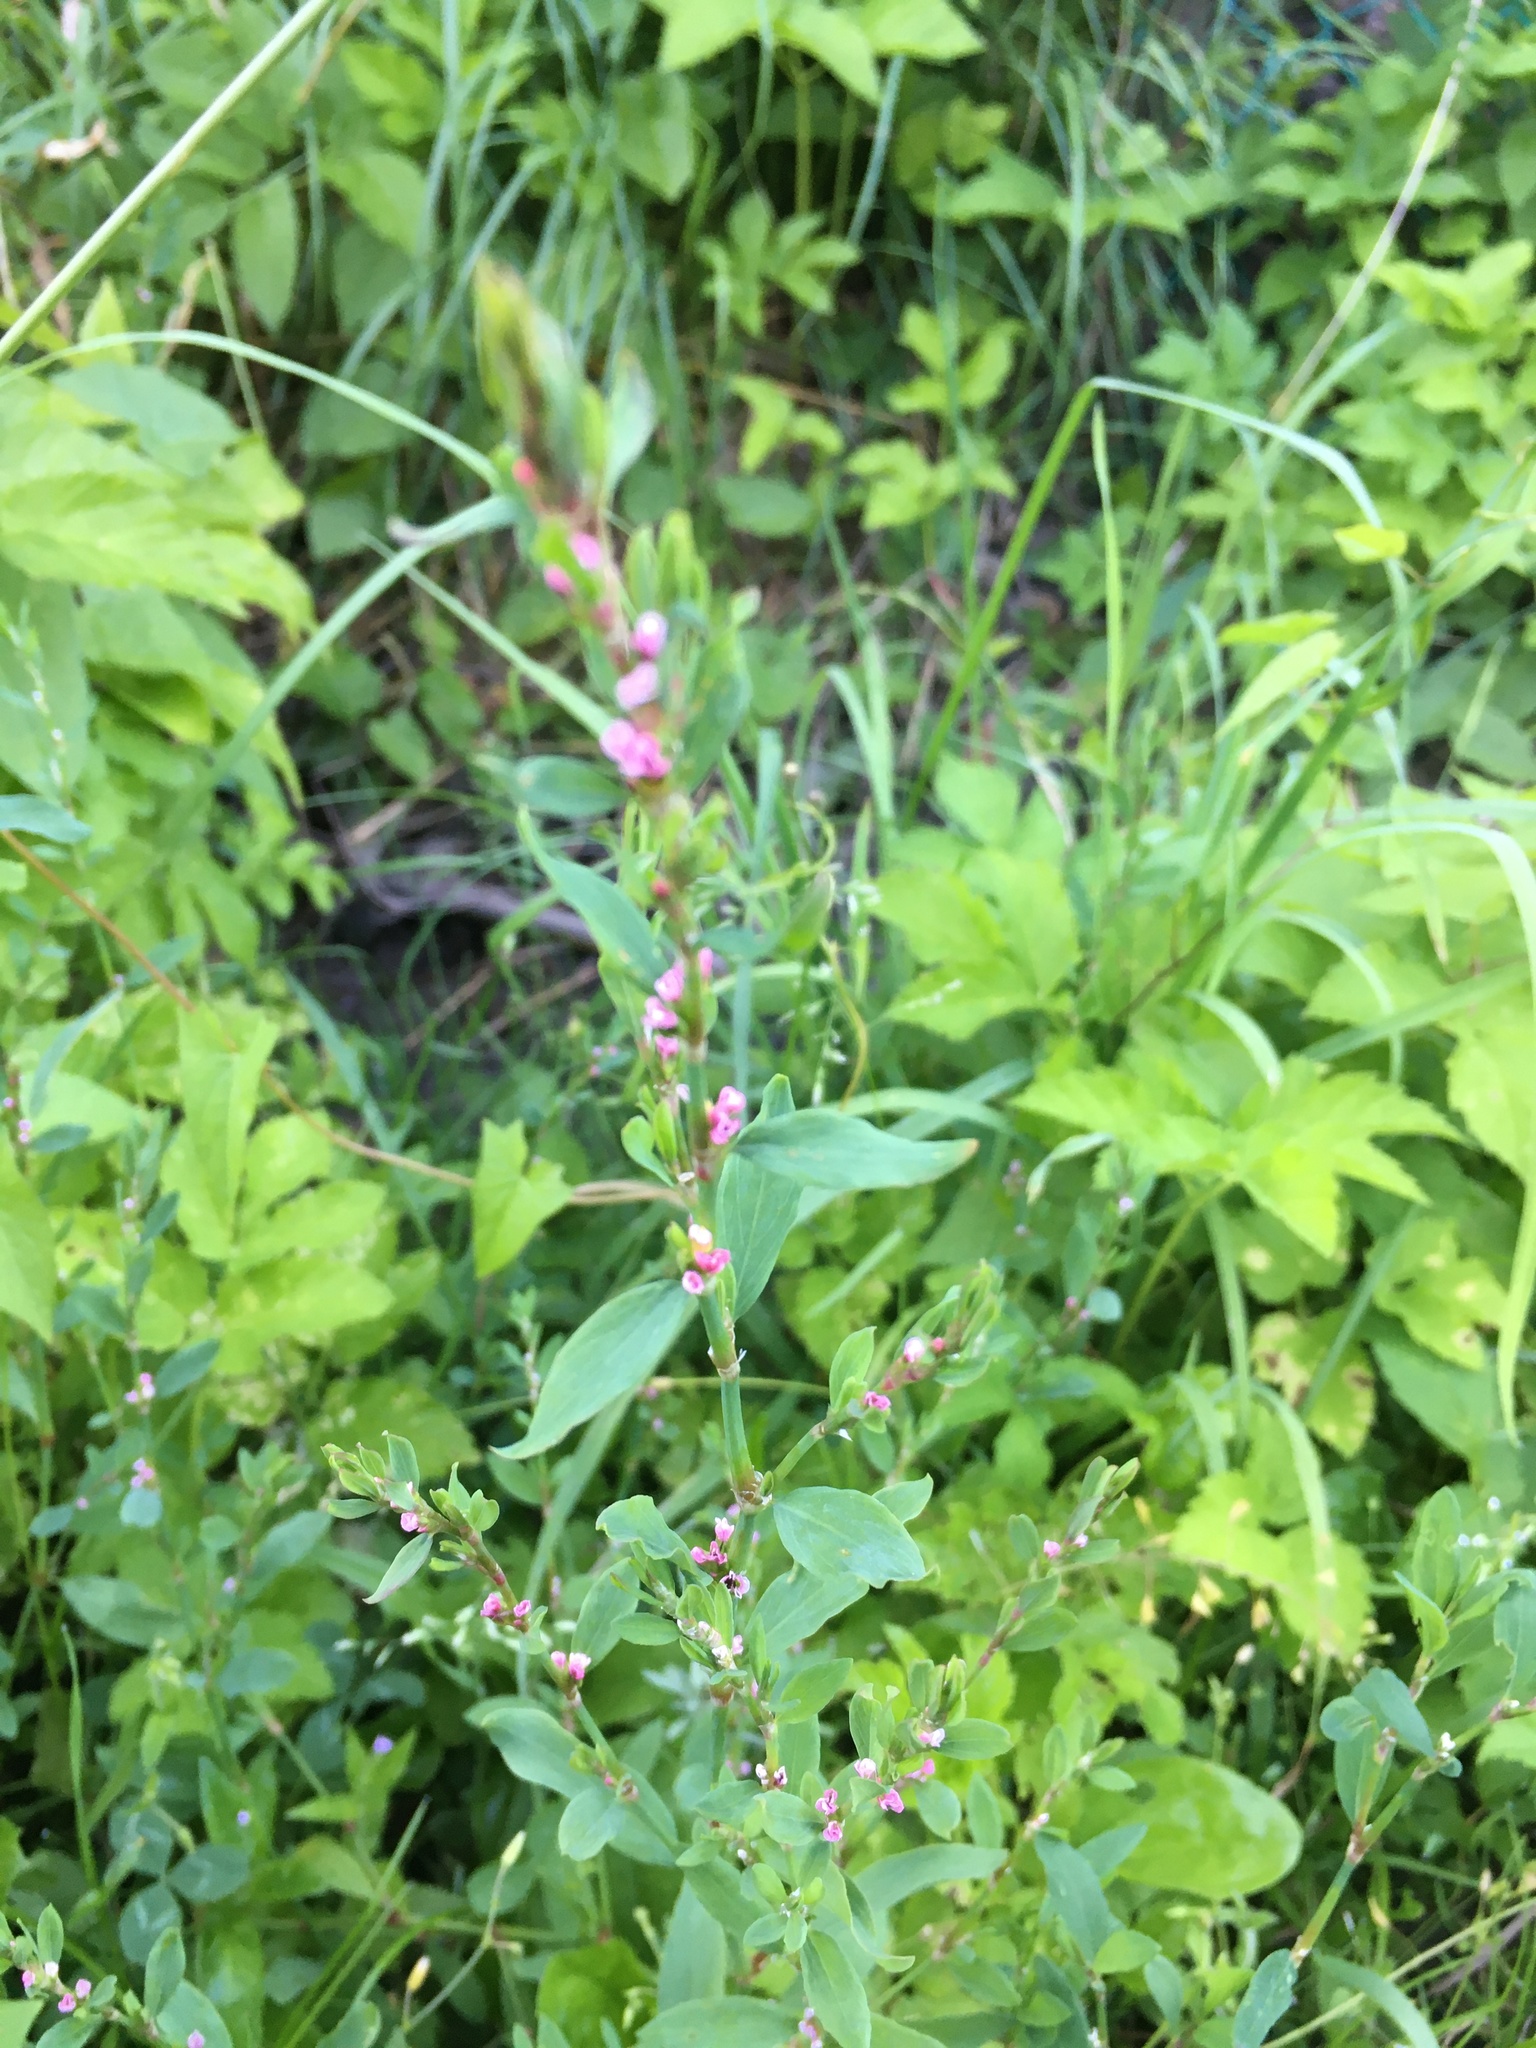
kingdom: Plantae
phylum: Tracheophyta
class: Magnoliopsida
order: Caryophyllales
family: Polygonaceae
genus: Polygonum
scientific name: Polygonum
